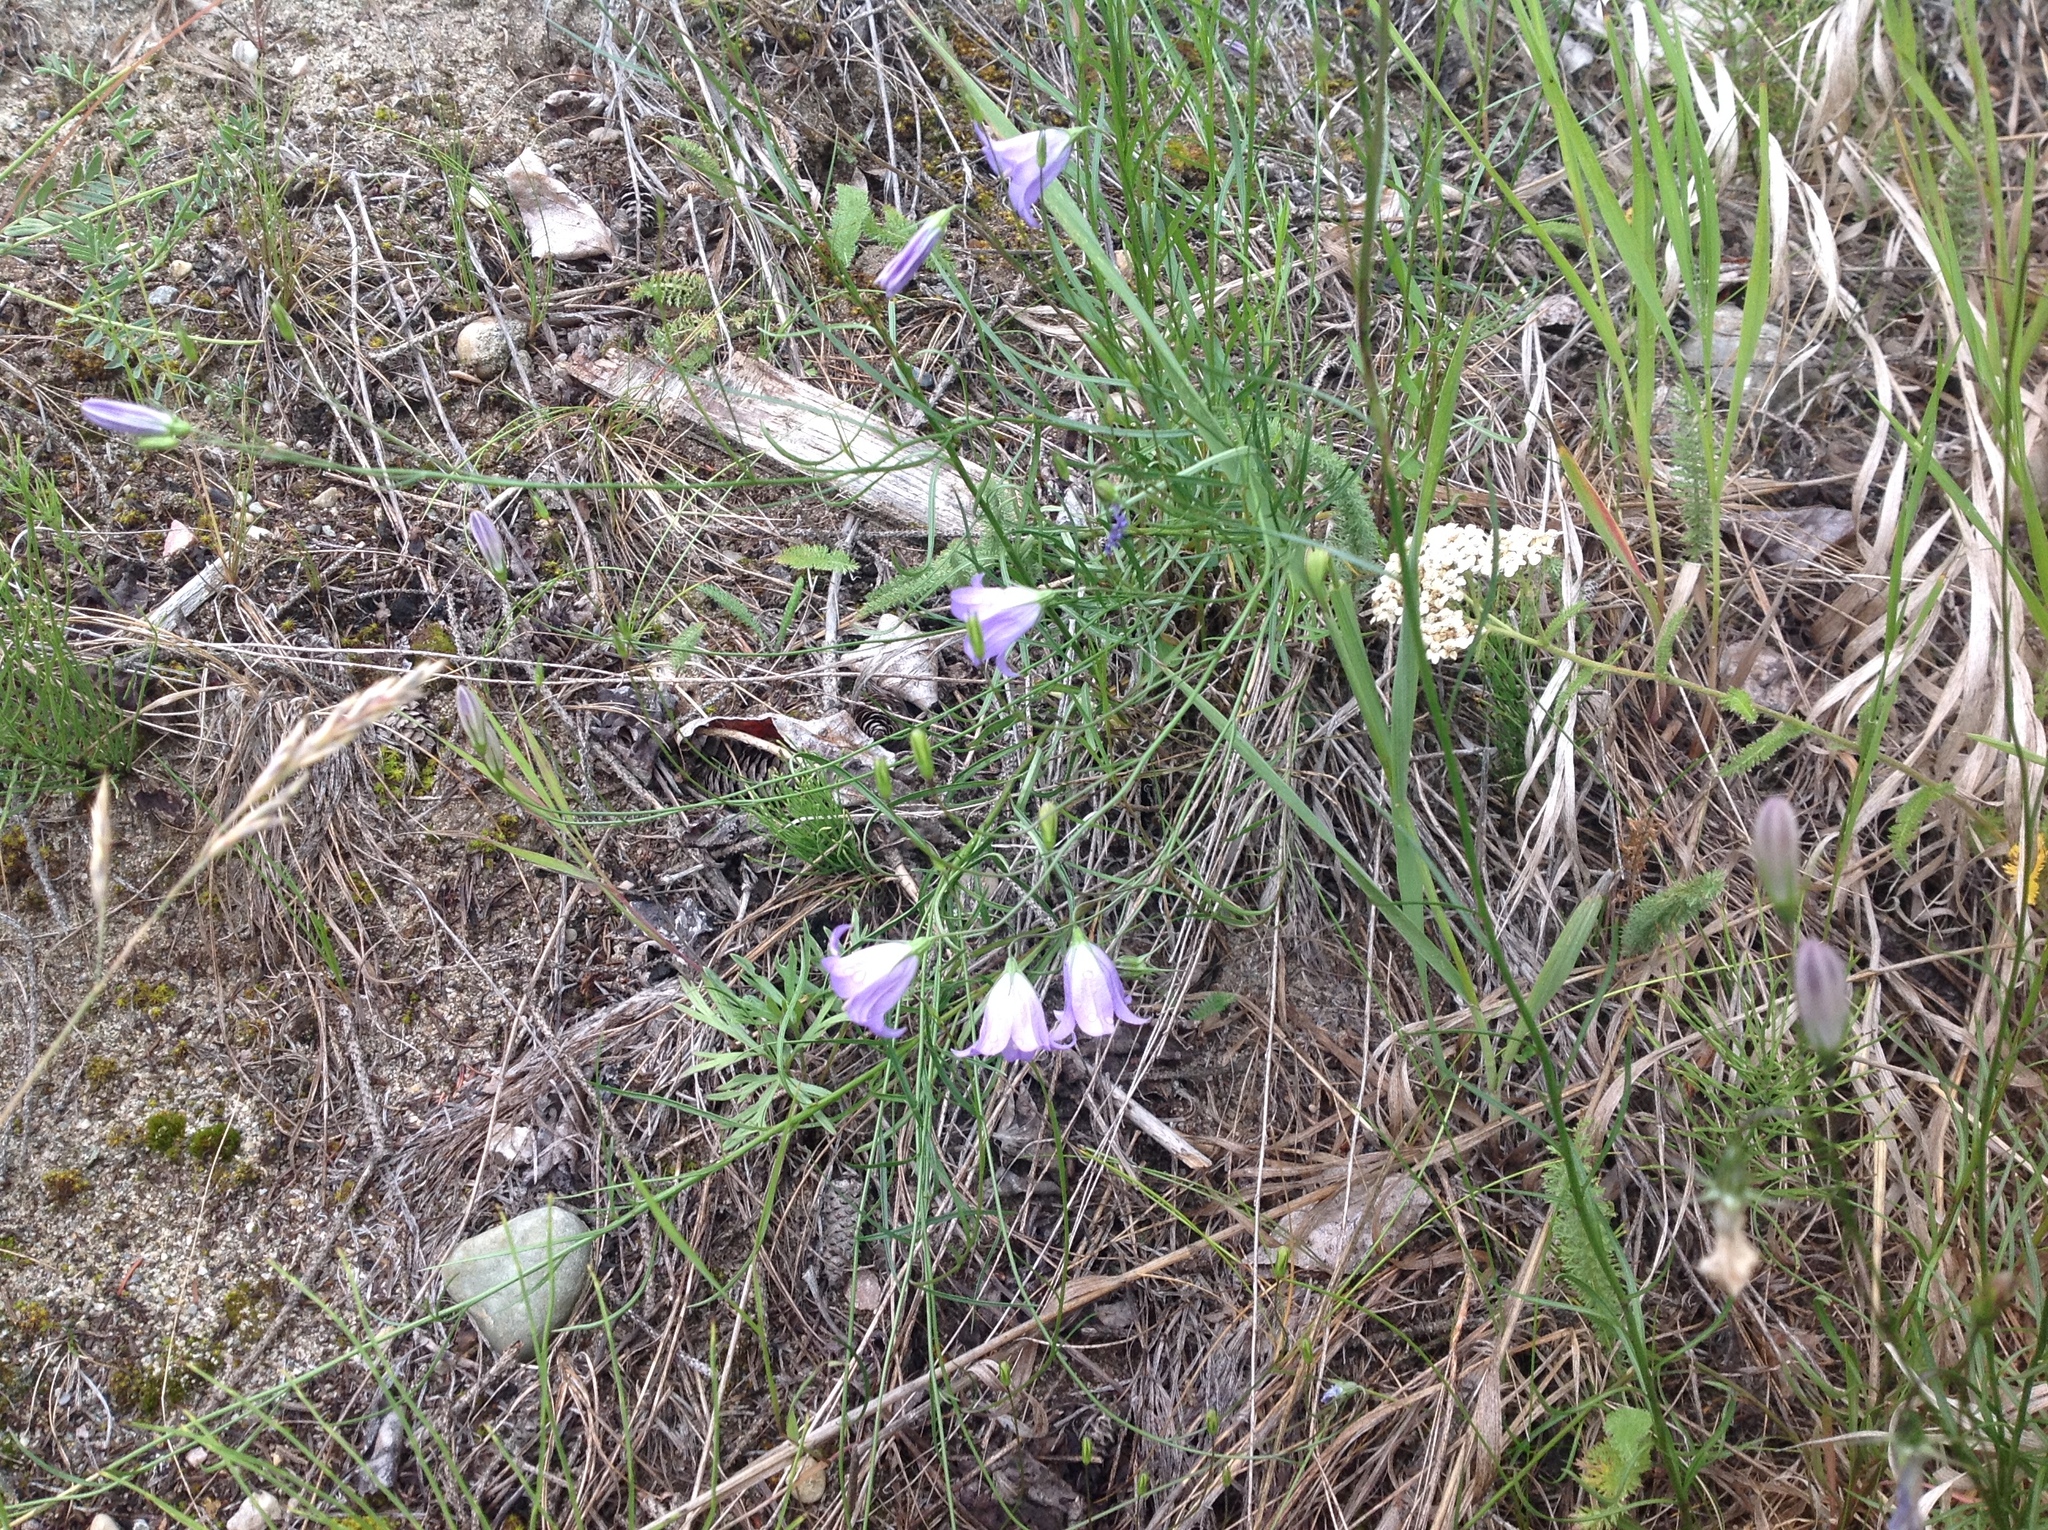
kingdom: Plantae
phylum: Tracheophyta
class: Magnoliopsida
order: Asterales
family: Campanulaceae
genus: Campanula
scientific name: Campanula alaskana
